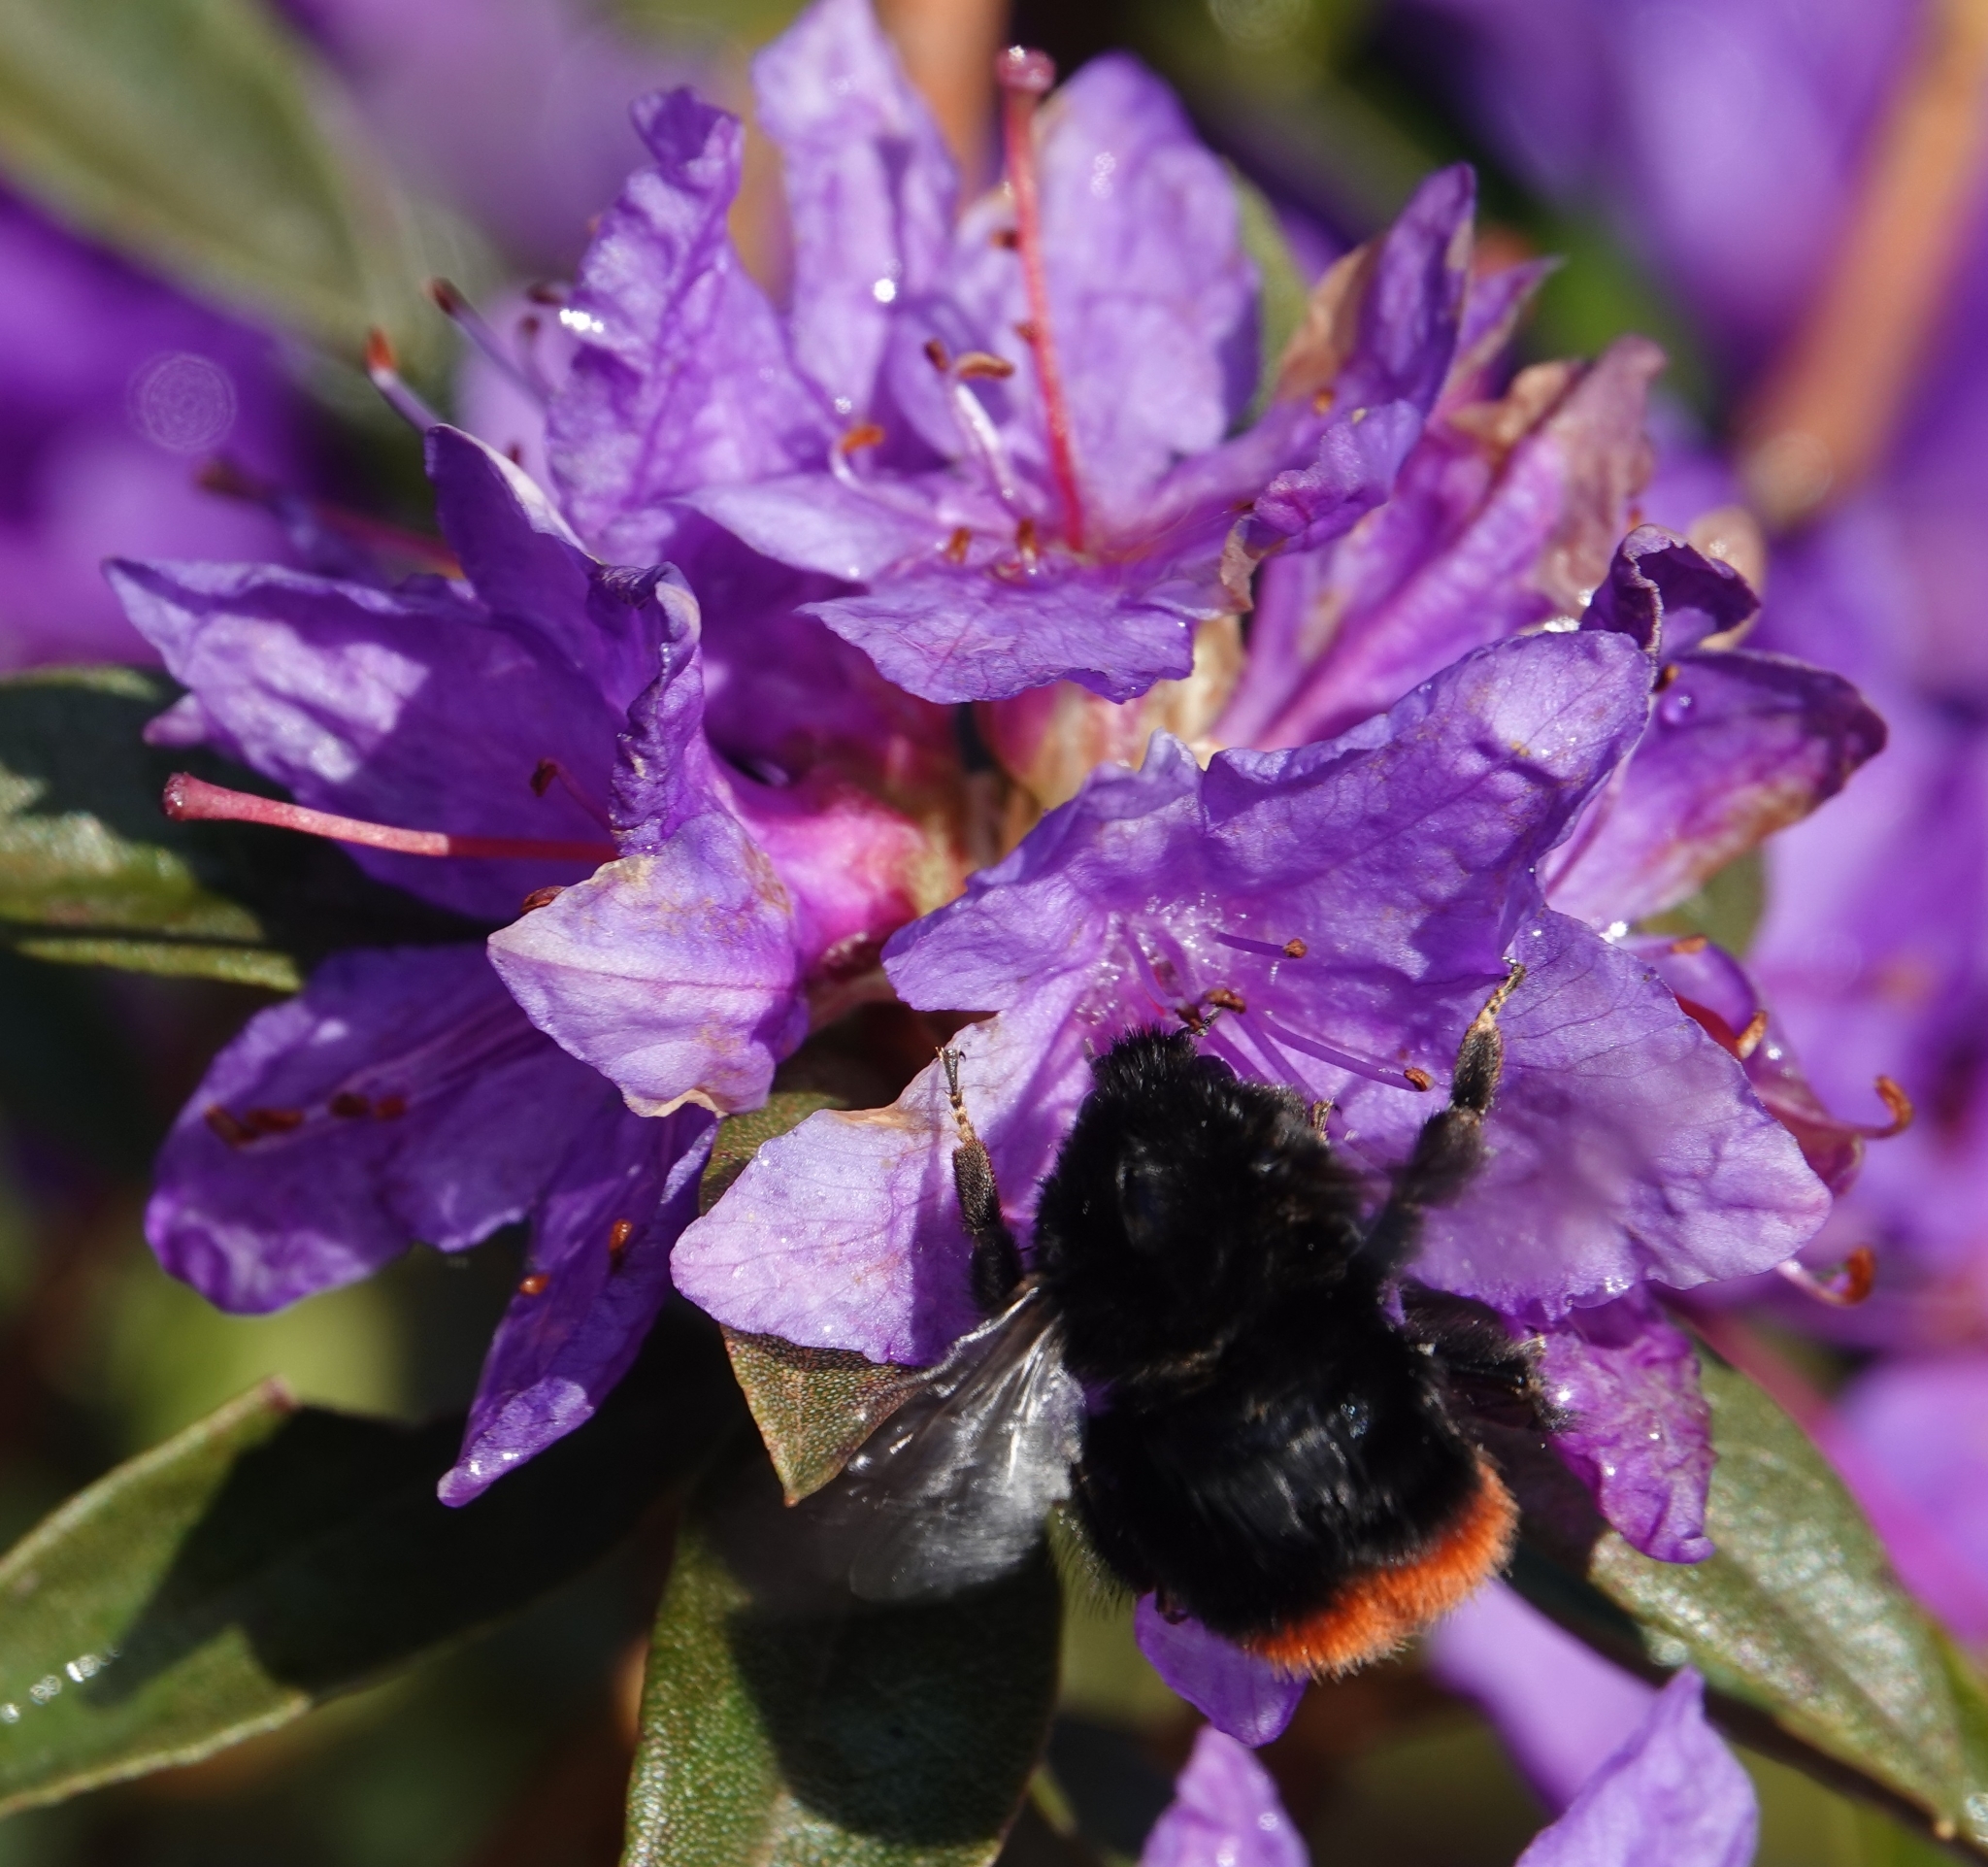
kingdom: Animalia
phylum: Arthropoda
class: Insecta
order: Hymenoptera
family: Apidae
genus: Bombus
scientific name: Bombus lapidarius
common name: Large red-tailed humble-bee
